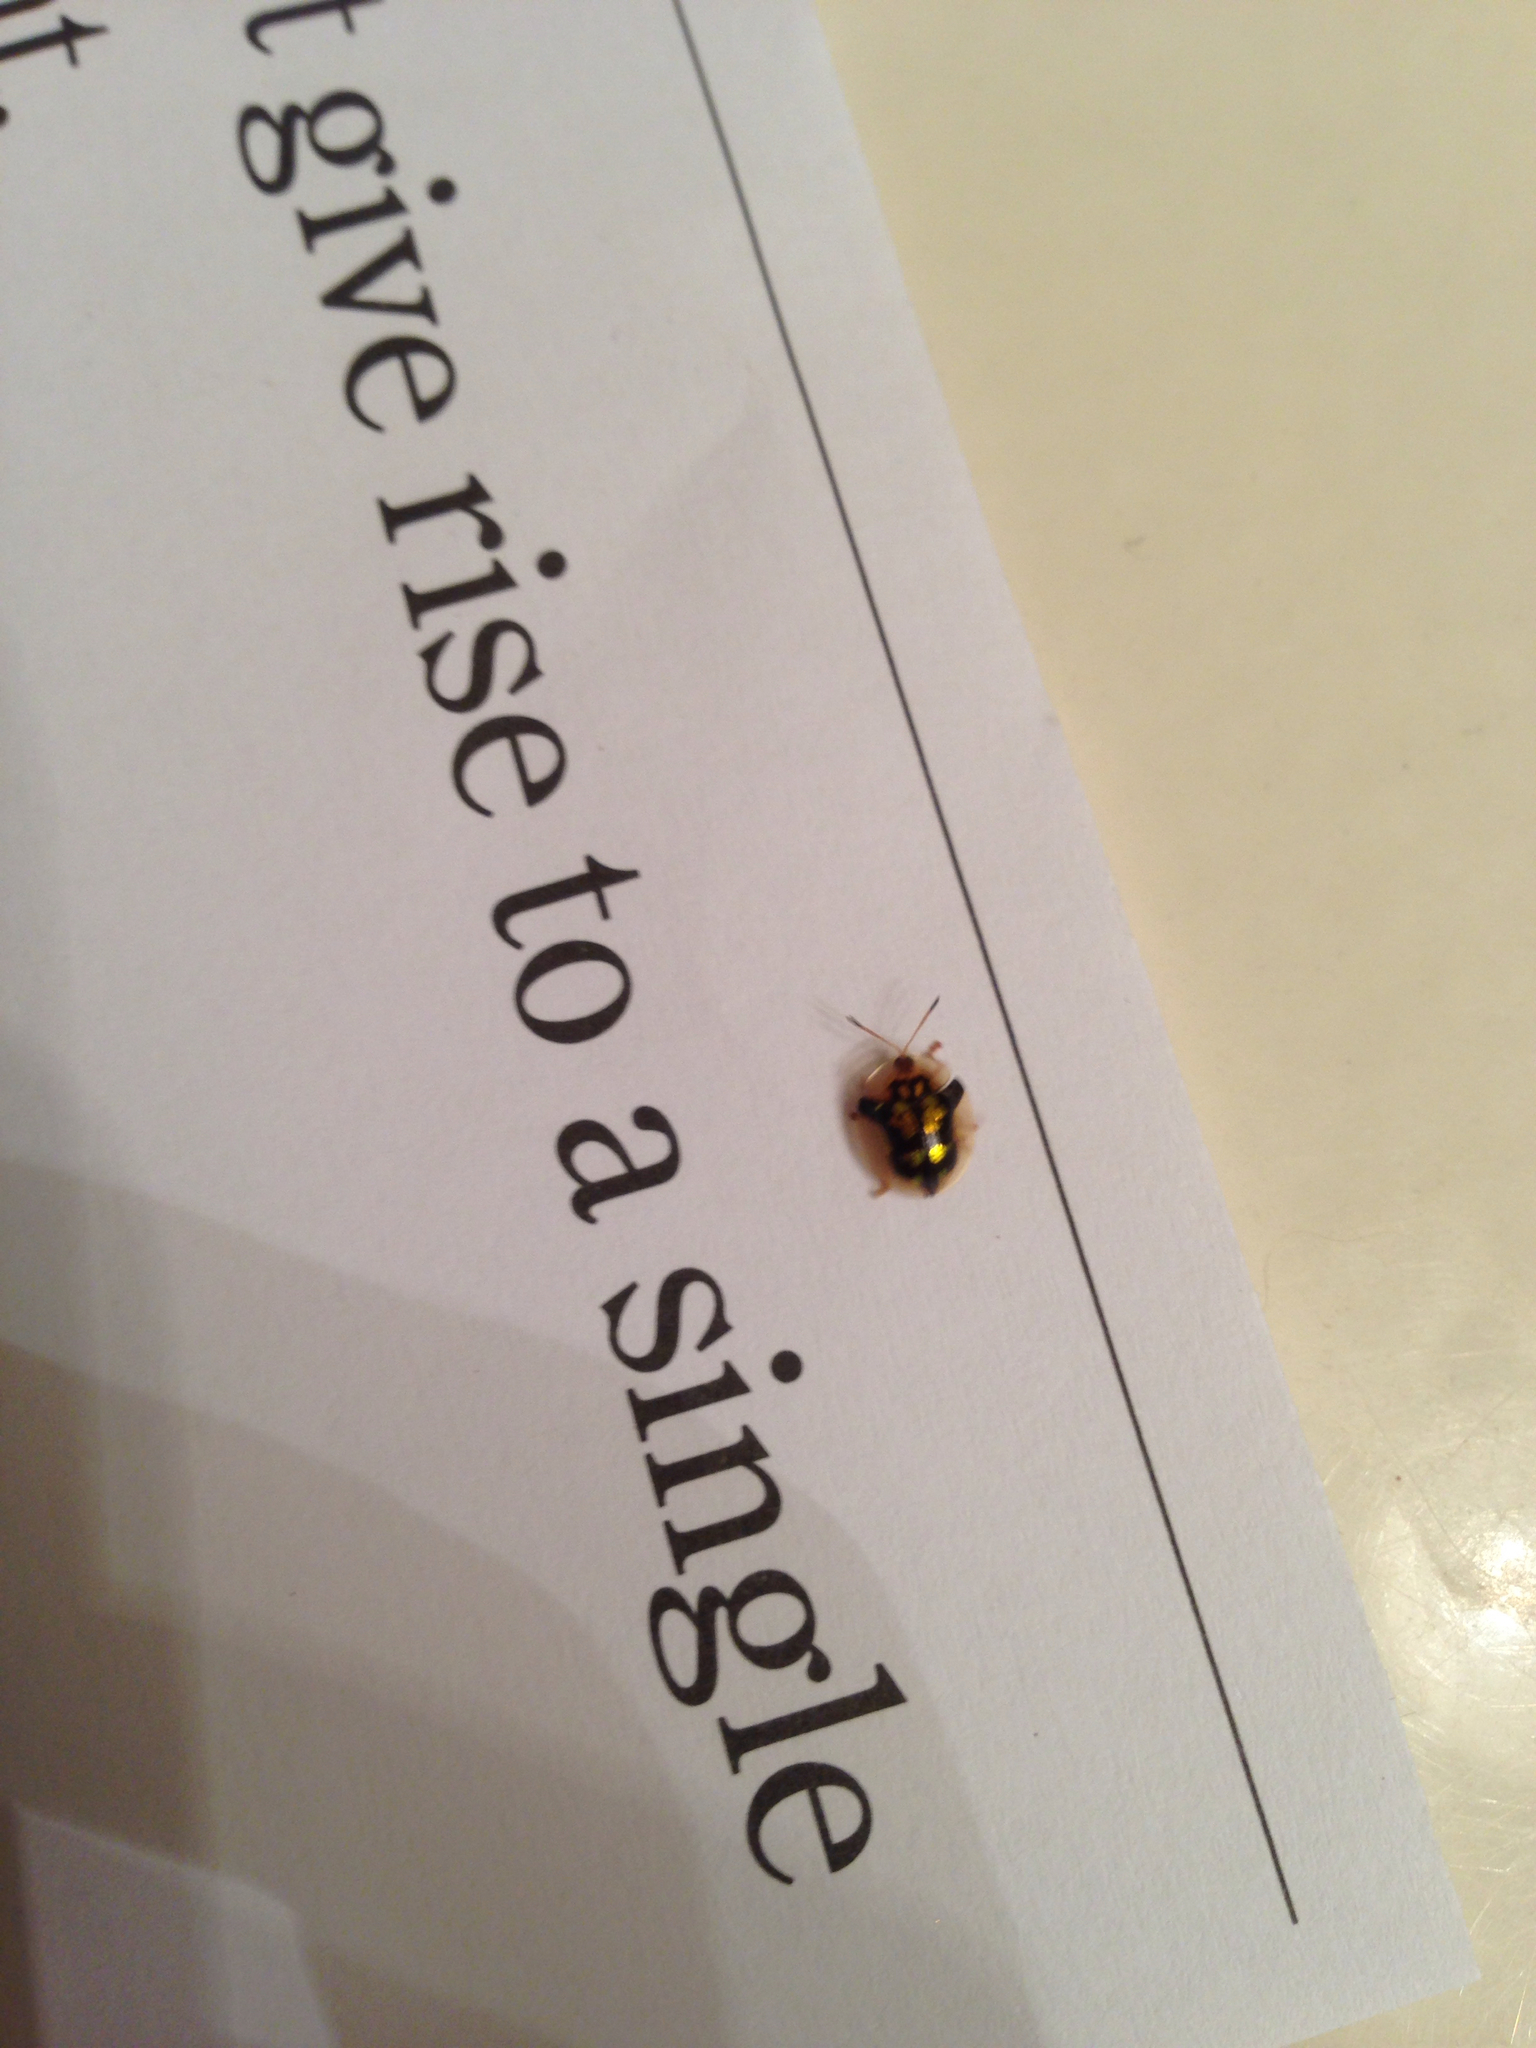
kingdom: Animalia
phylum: Arthropoda
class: Insecta
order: Coleoptera
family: Chrysomelidae
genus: Deloyala
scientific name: Deloyala guttata
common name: Mottled tortoise beetle
